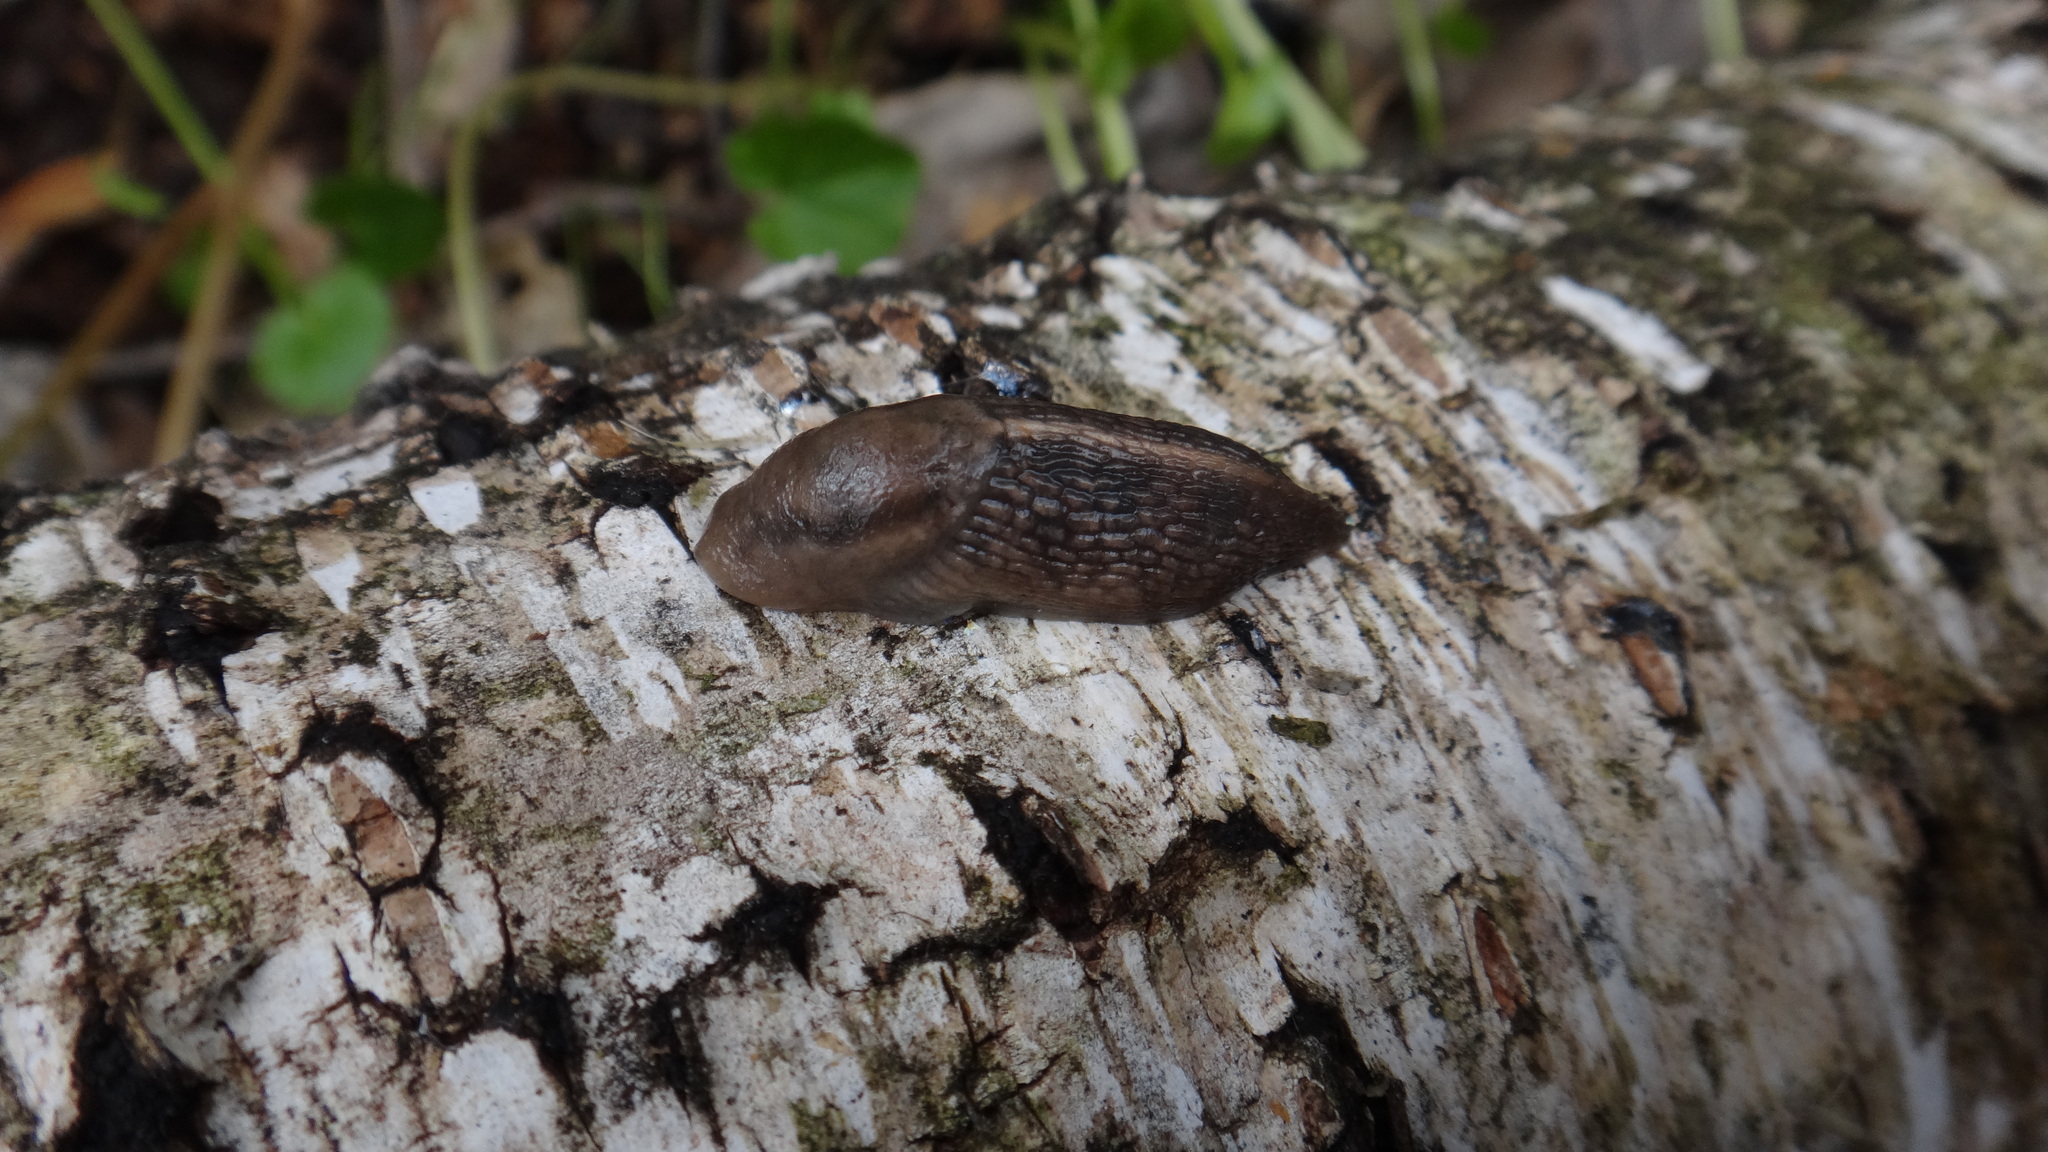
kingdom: Animalia
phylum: Mollusca
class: Gastropoda
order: Stylommatophora
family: Limacidae
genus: Lehmannia
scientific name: Lehmannia marginata
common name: Tree slug
